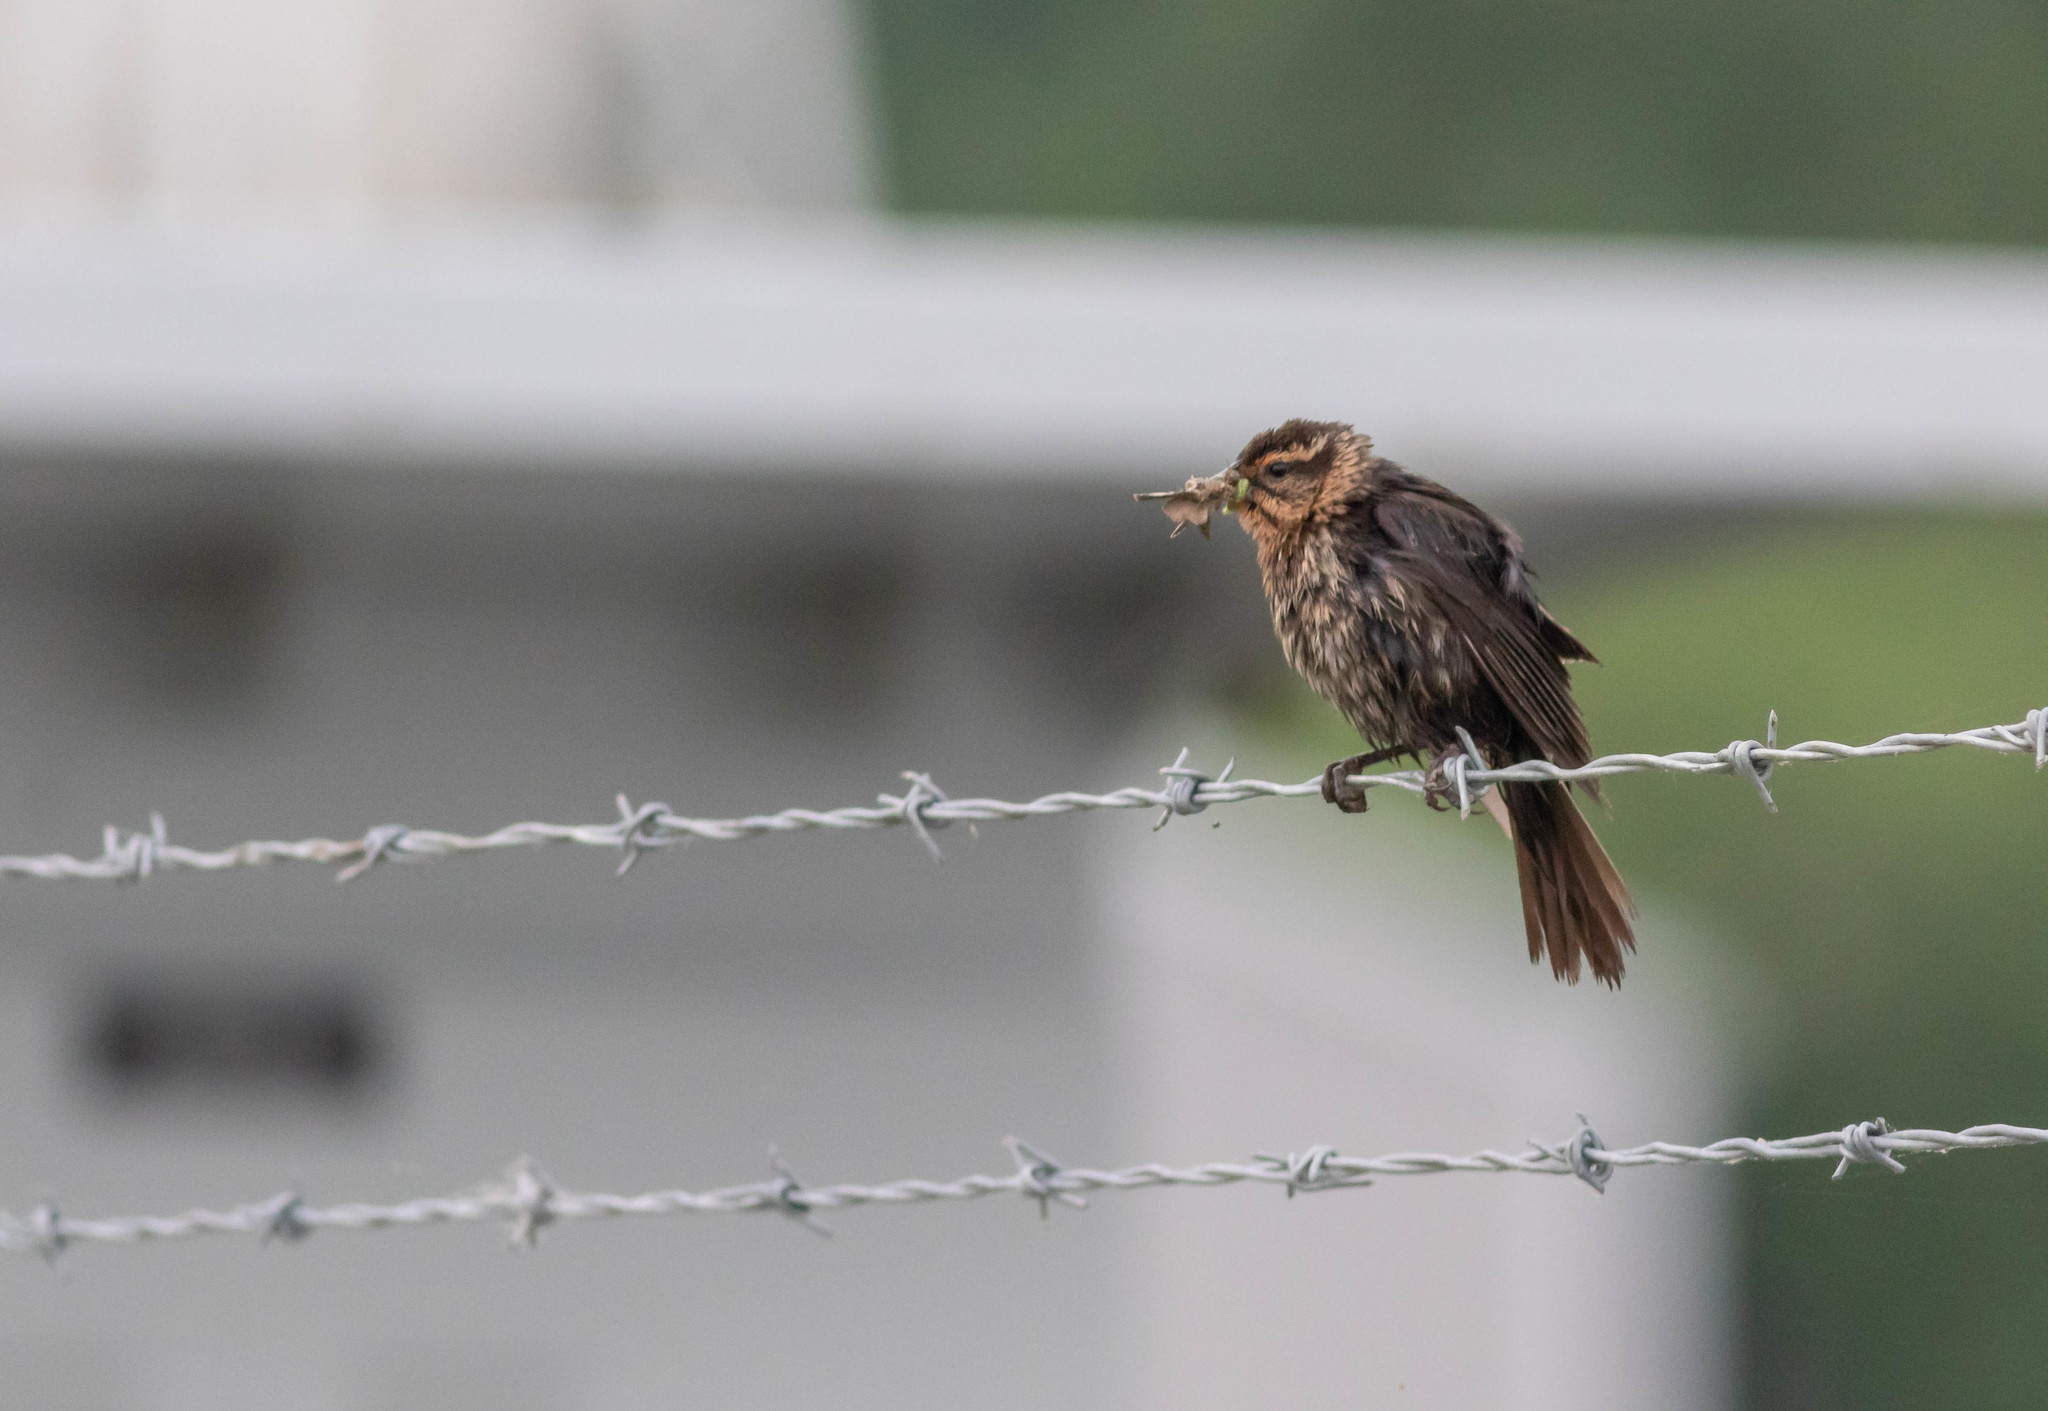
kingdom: Animalia
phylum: Chordata
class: Aves
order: Passeriformes
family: Icteridae
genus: Agelaius
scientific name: Agelaius phoeniceus
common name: Red-winged blackbird
